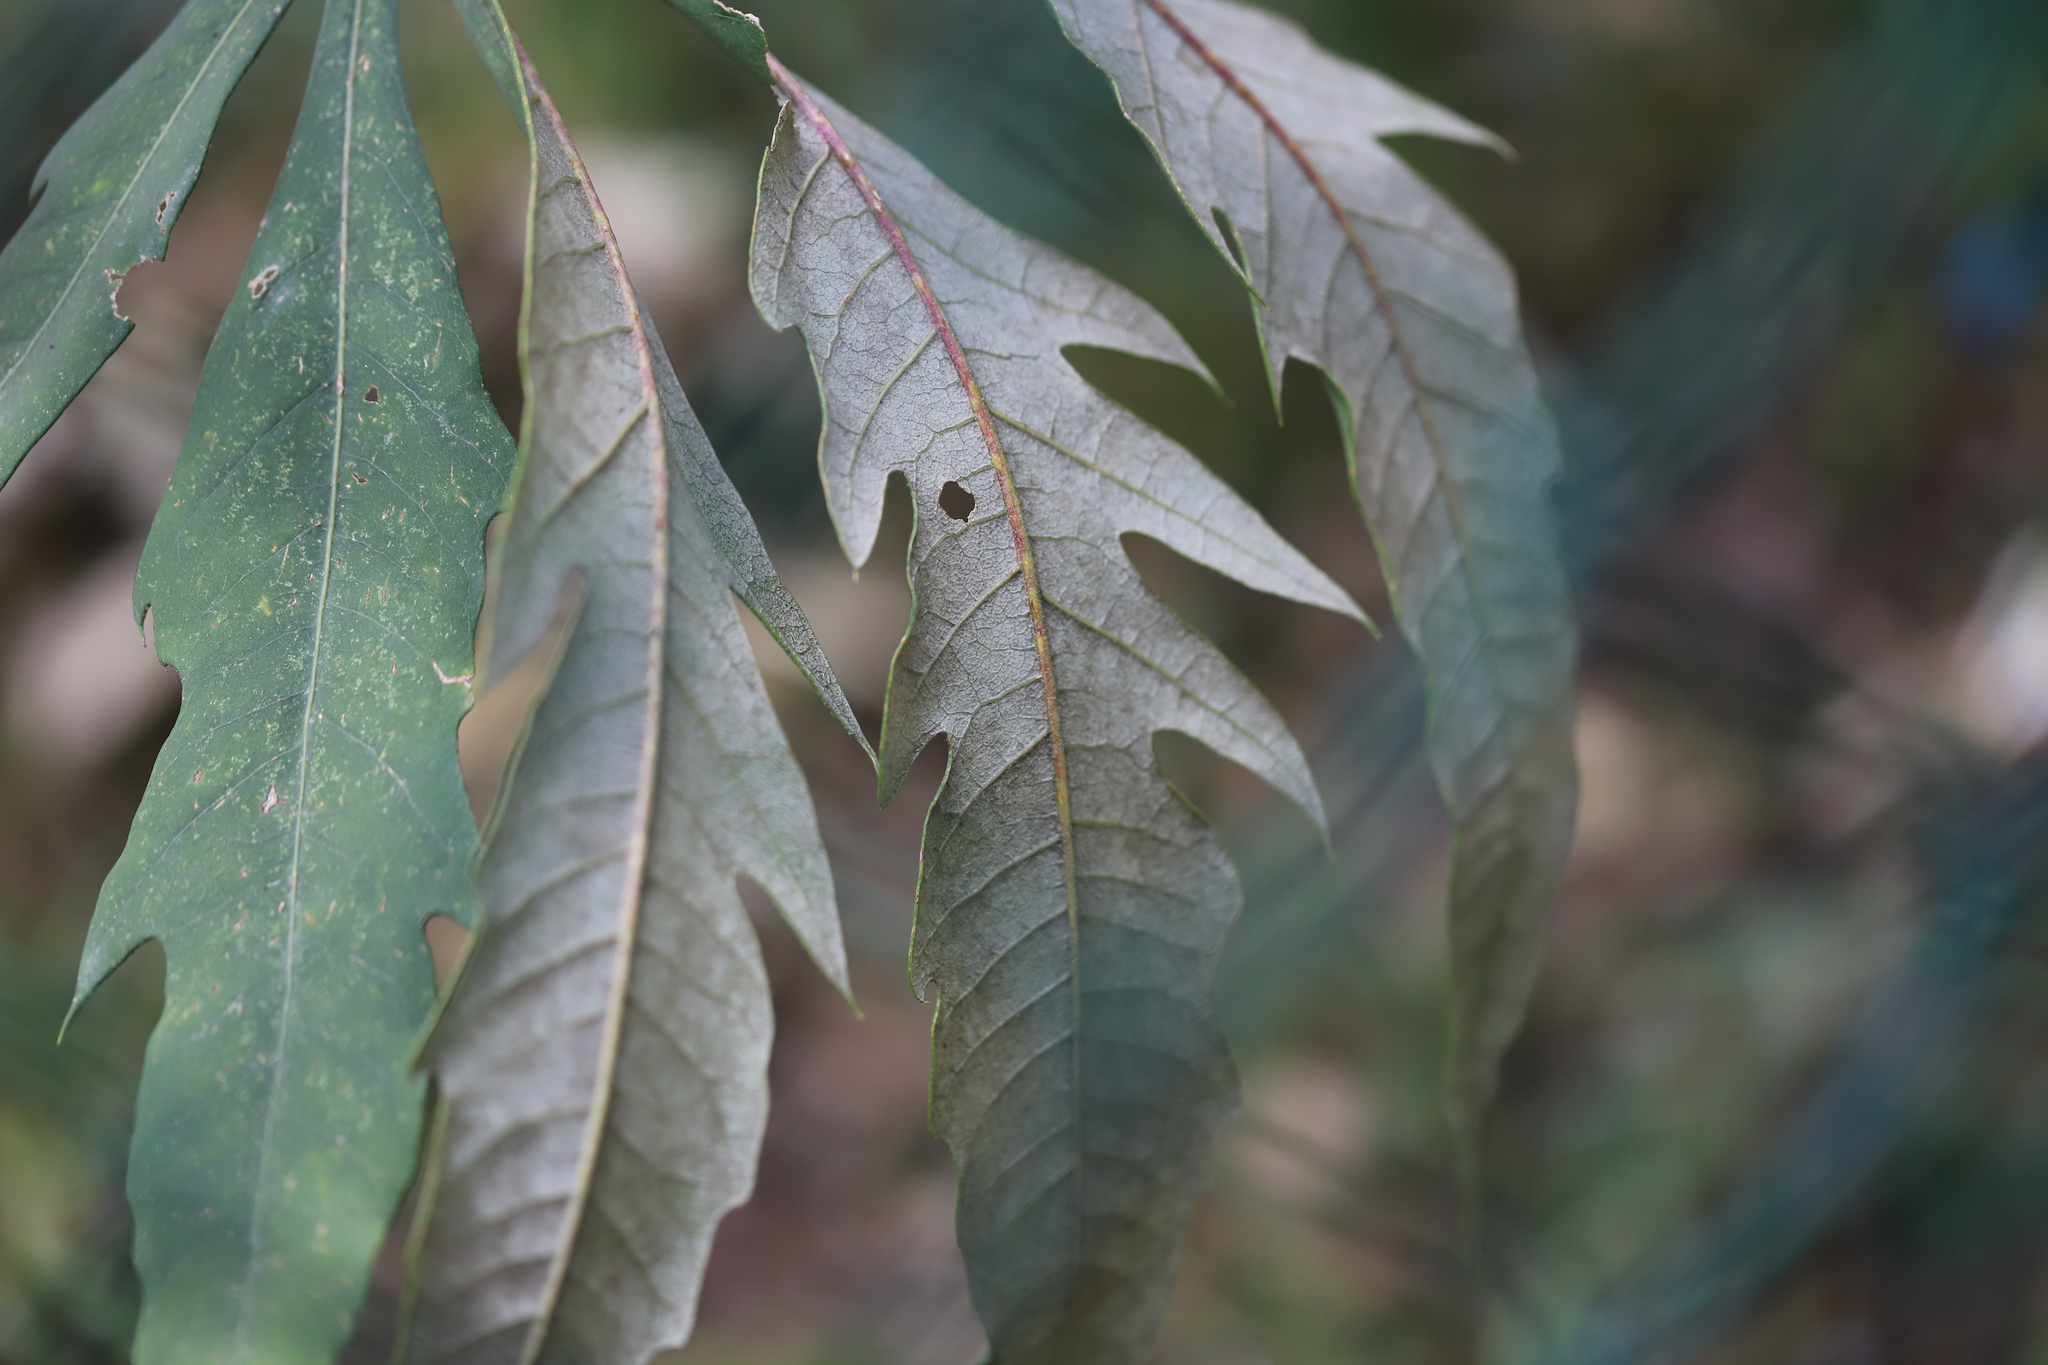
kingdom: Plantae
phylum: Tracheophyta
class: Magnoliopsida
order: Apiales
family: Araliaceae
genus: Oreopanax
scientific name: Oreopanax incisus
